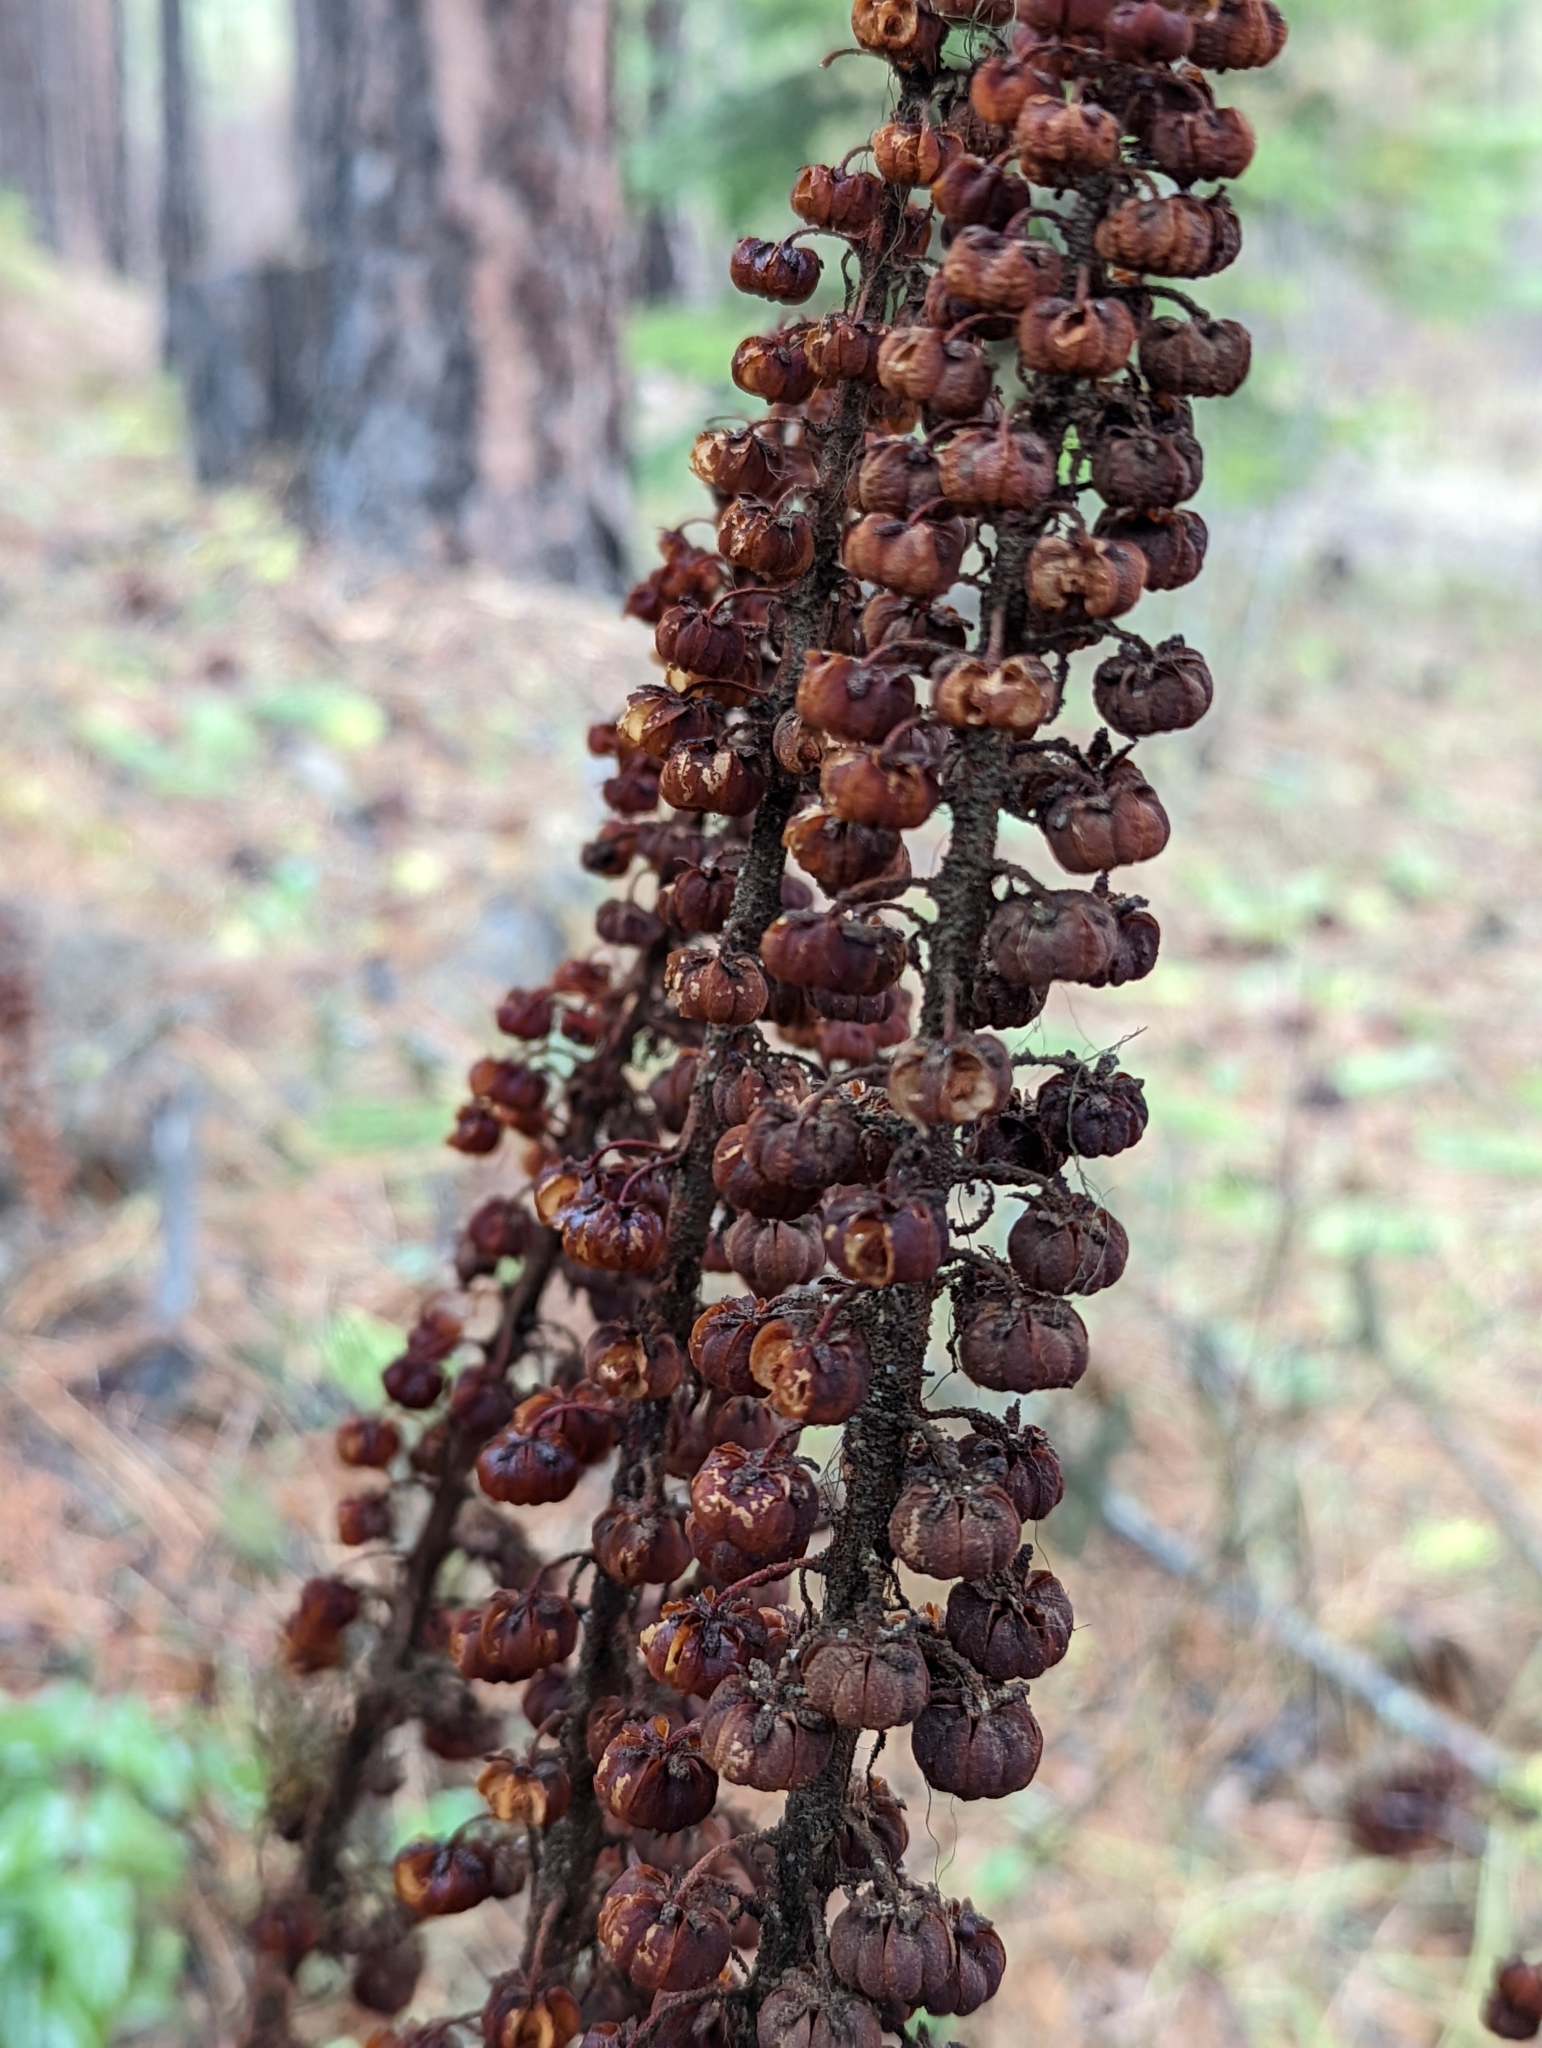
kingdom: Plantae
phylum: Tracheophyta
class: Magnoliopsida
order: Ericales
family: Ericaceae
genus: Pterospora
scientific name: Pterospora andromedea
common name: Giant bird's-nest
